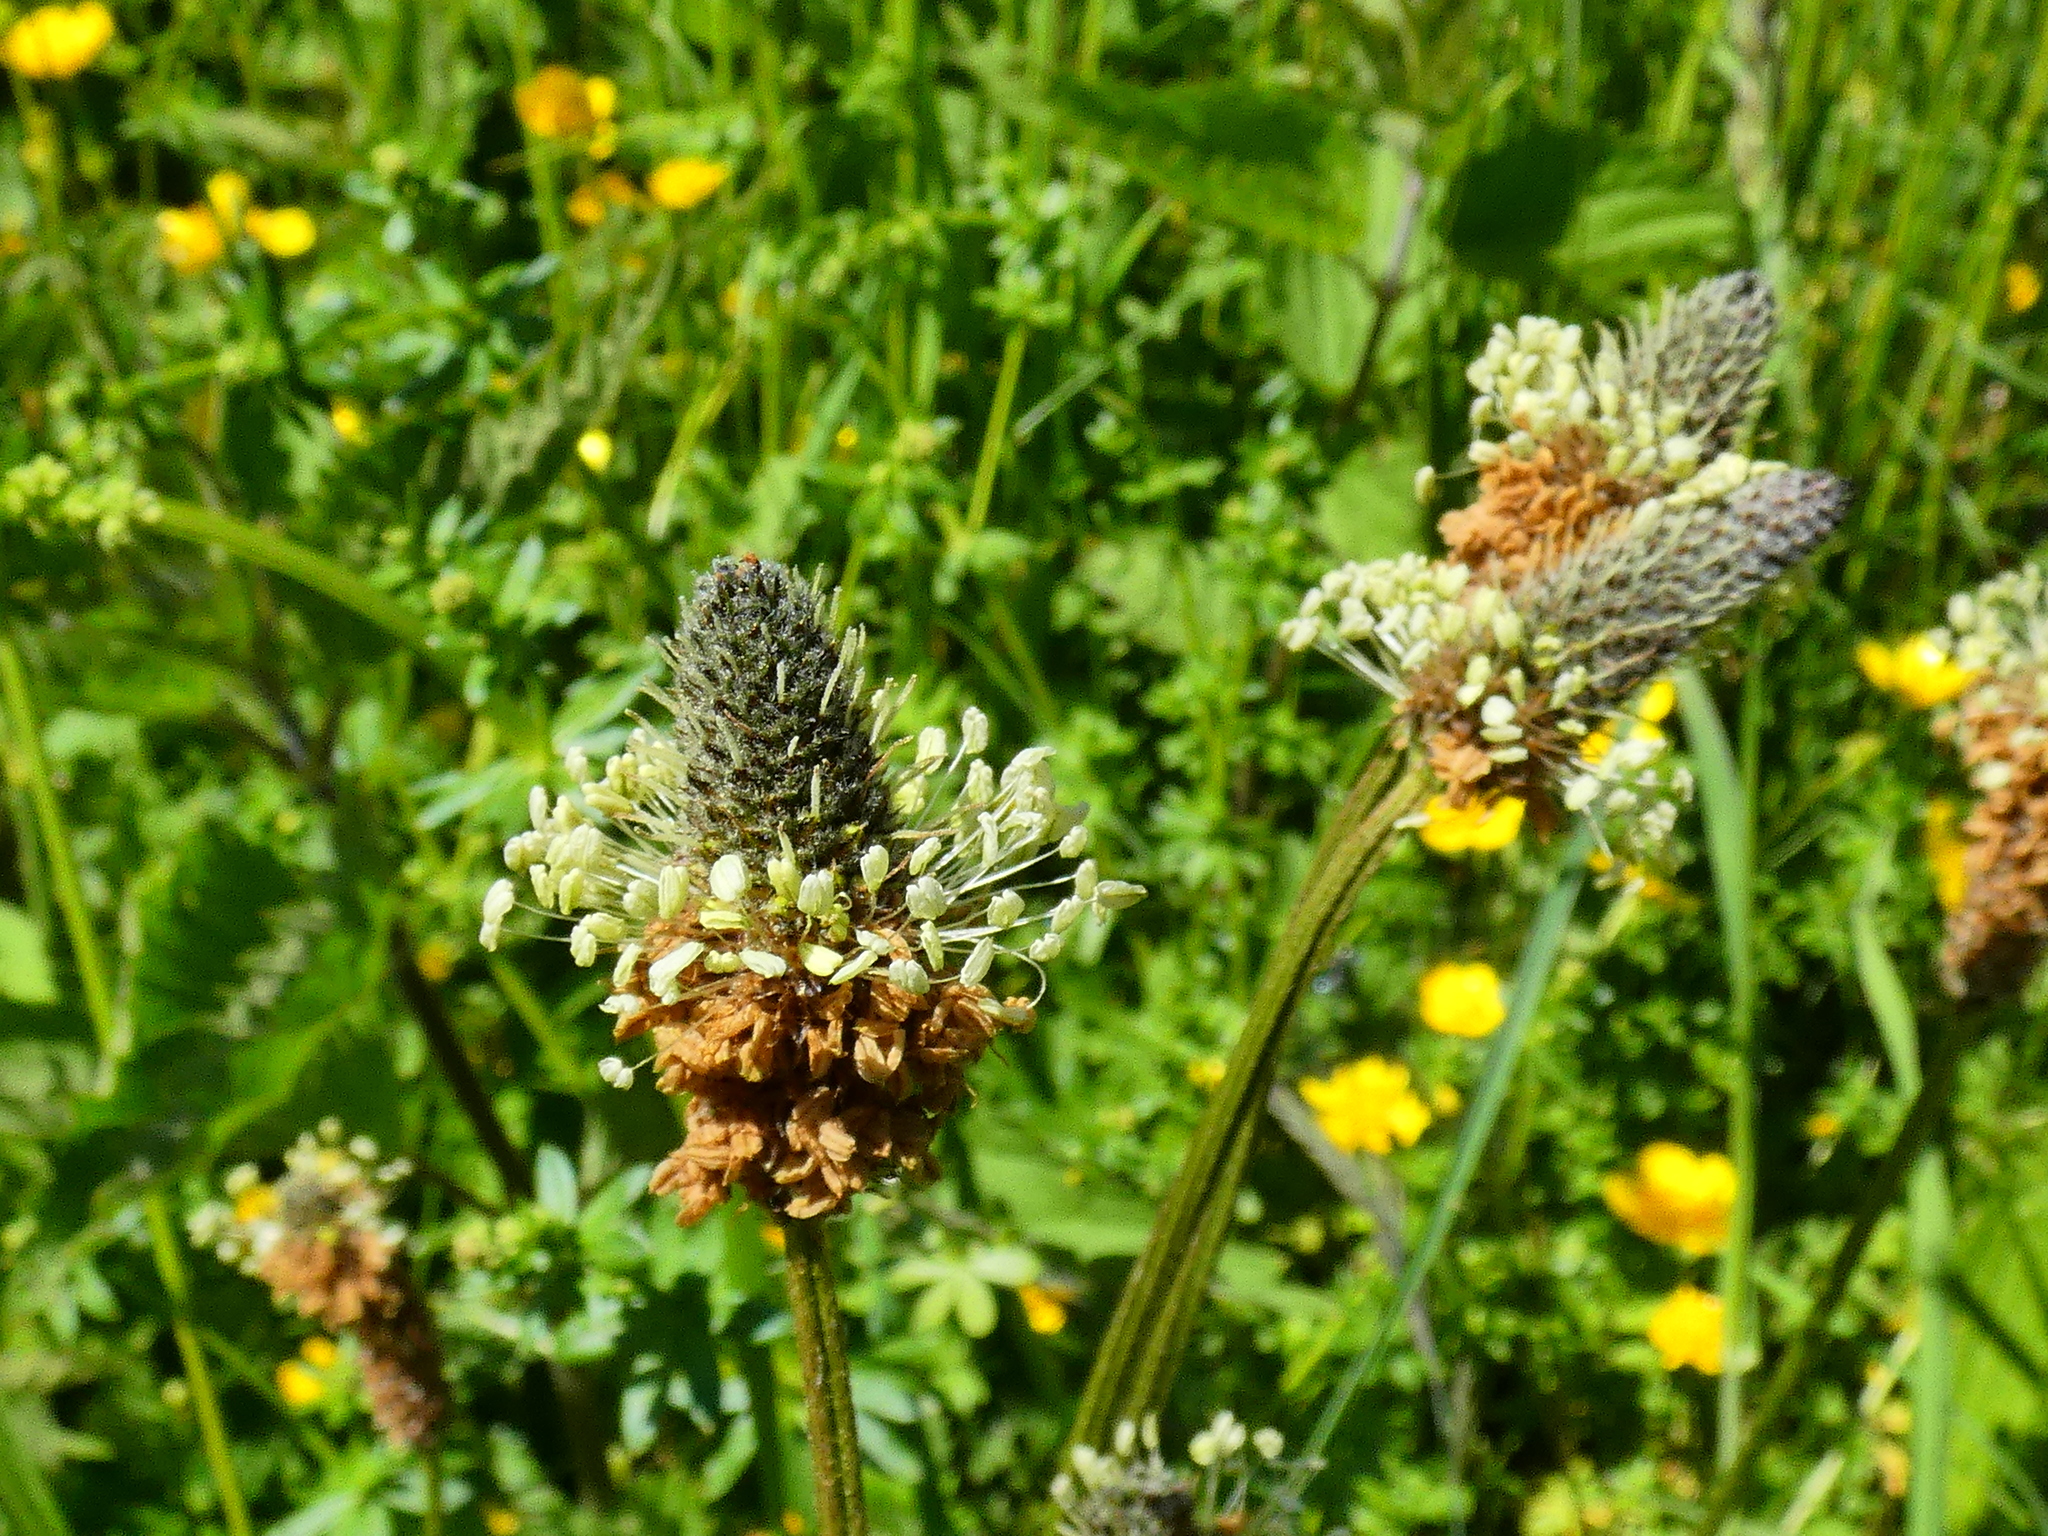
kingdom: Plantae
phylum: Tracheophyta
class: Magnoliopsida
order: Lamiales
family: Plantaginaceae
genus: Plantago
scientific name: Plantago lanceolata
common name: Ribwort plantain
